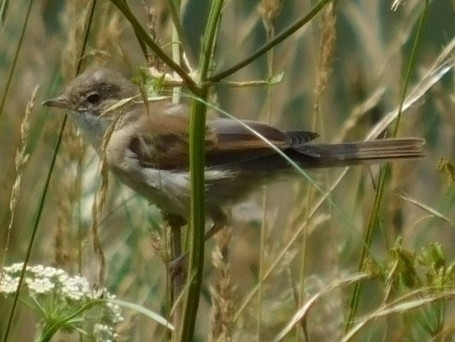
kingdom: Animalia
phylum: Chordata
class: Aves
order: Passeriformes
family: Sylviidae
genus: Sylvia
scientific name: Sylvia communis
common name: Common whitethroat
